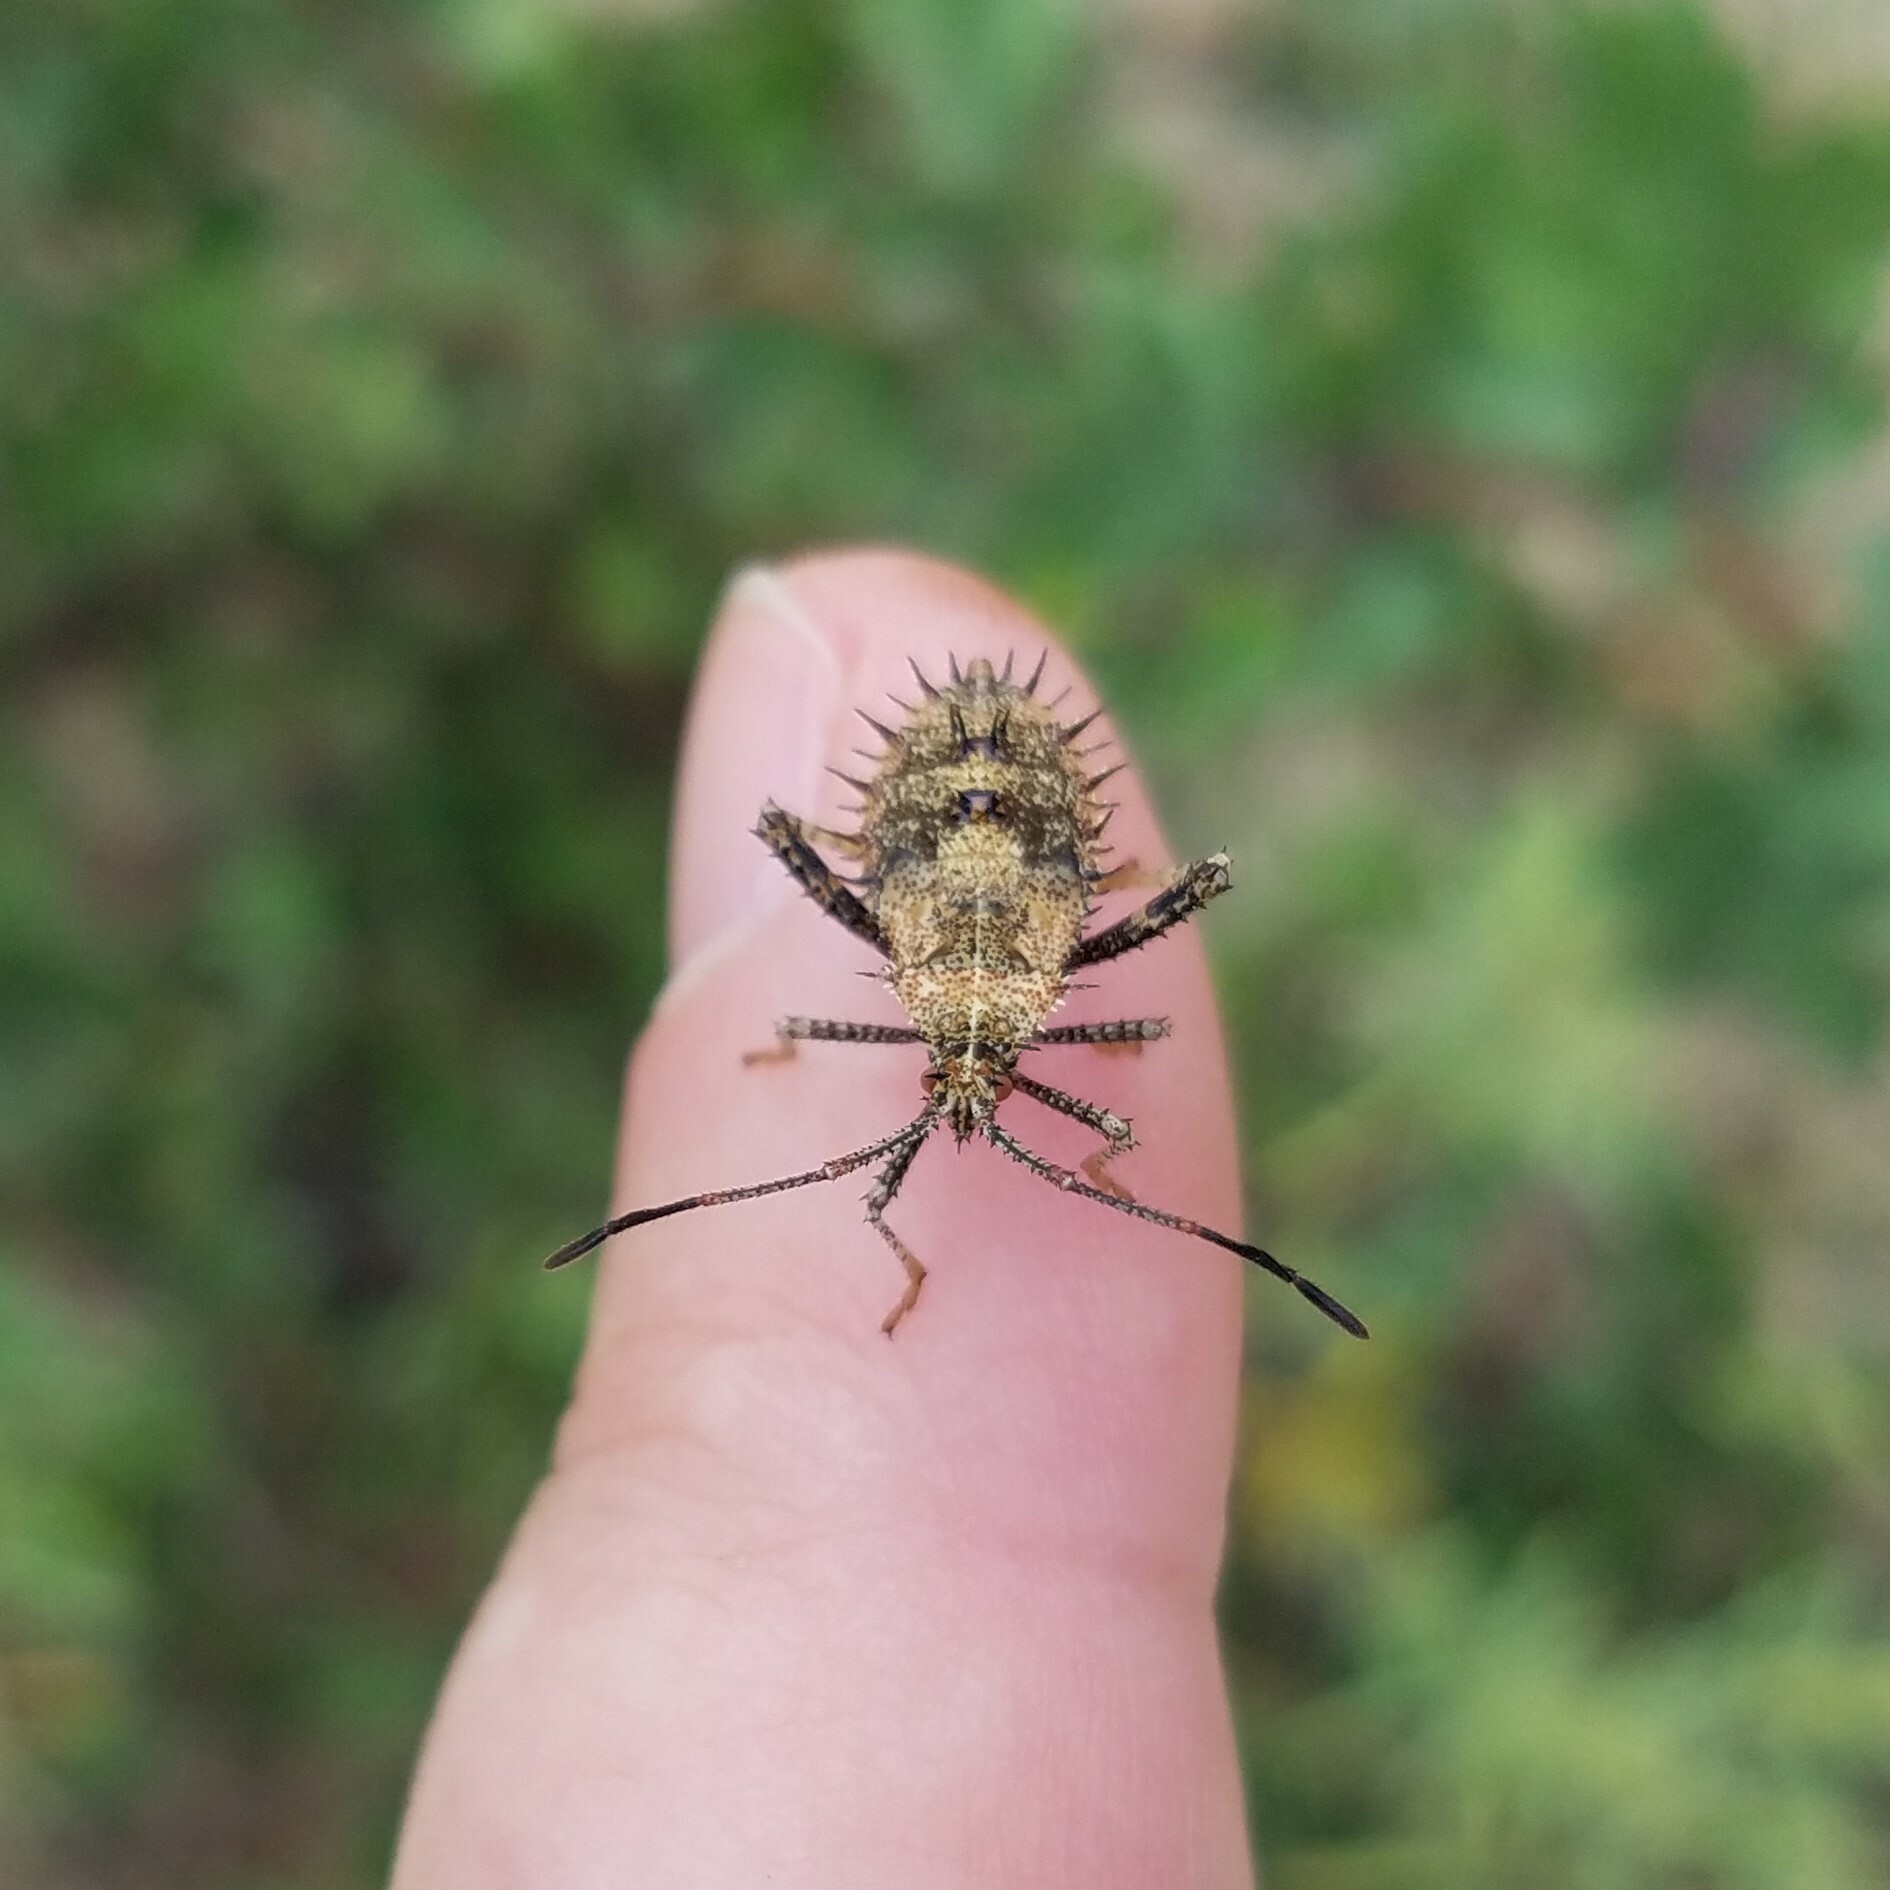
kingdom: Animalia
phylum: Arthropoda
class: Insecta
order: Hemiptera
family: Coreidae
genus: Euthochtha
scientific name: Euthochtha galeator
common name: Helmeted squash bug
